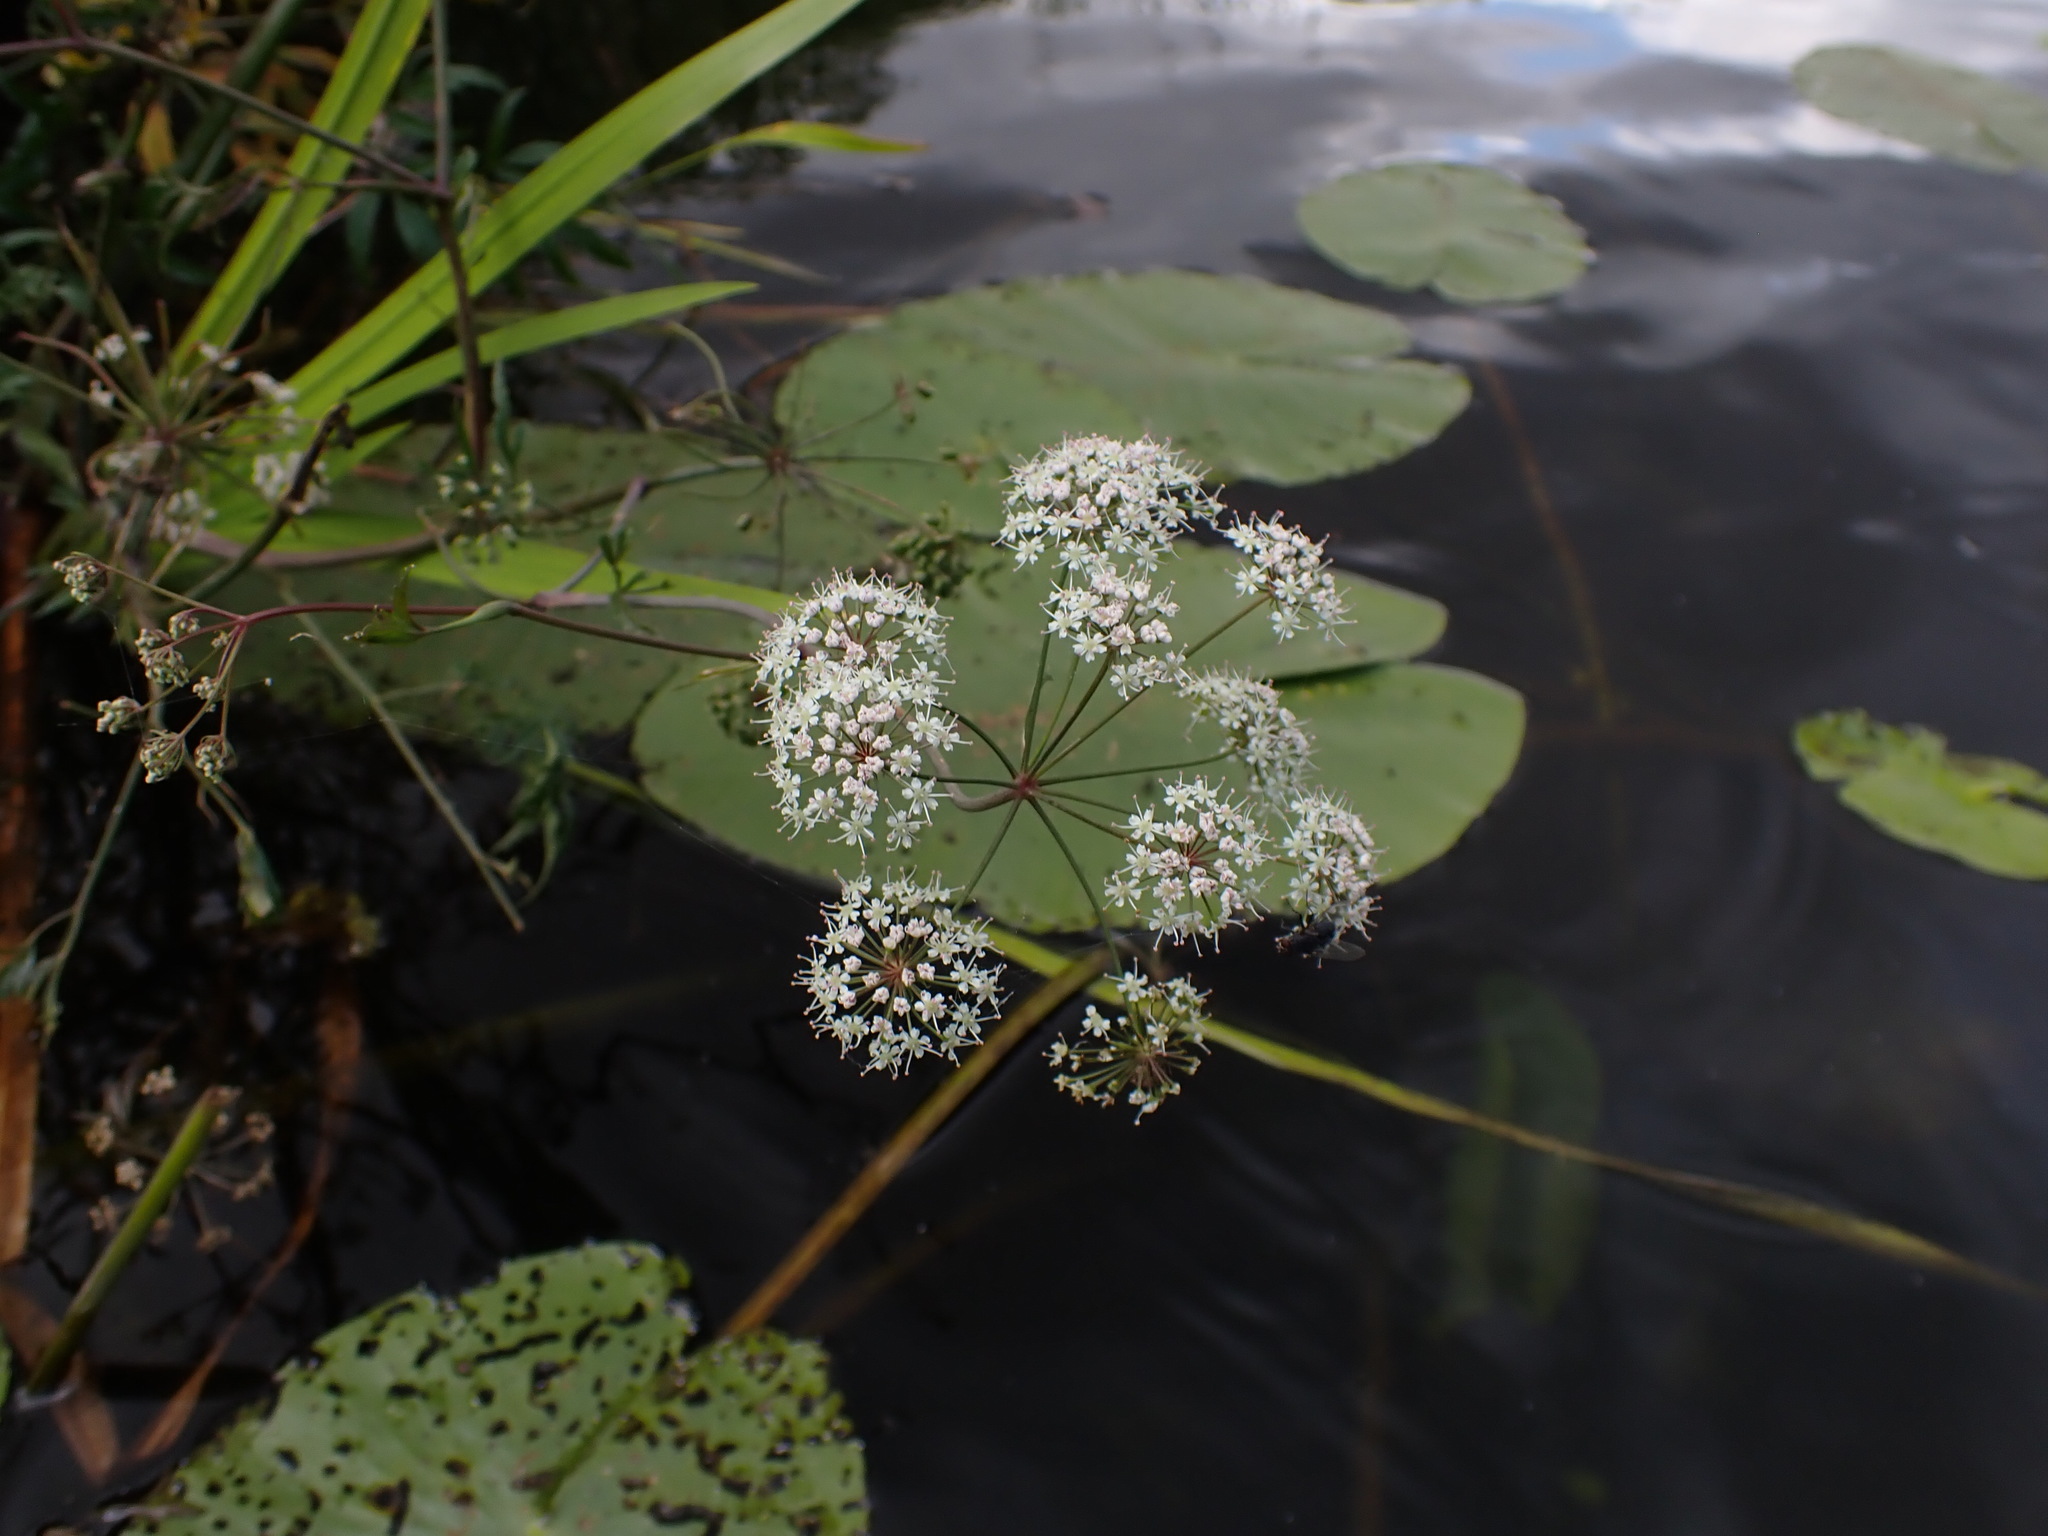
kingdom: Plantae
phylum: Tracheophyta
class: Magnoliopsida
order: Apiales
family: Apiaceae
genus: Cicuta
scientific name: Cicuta virosa
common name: Cowbane
